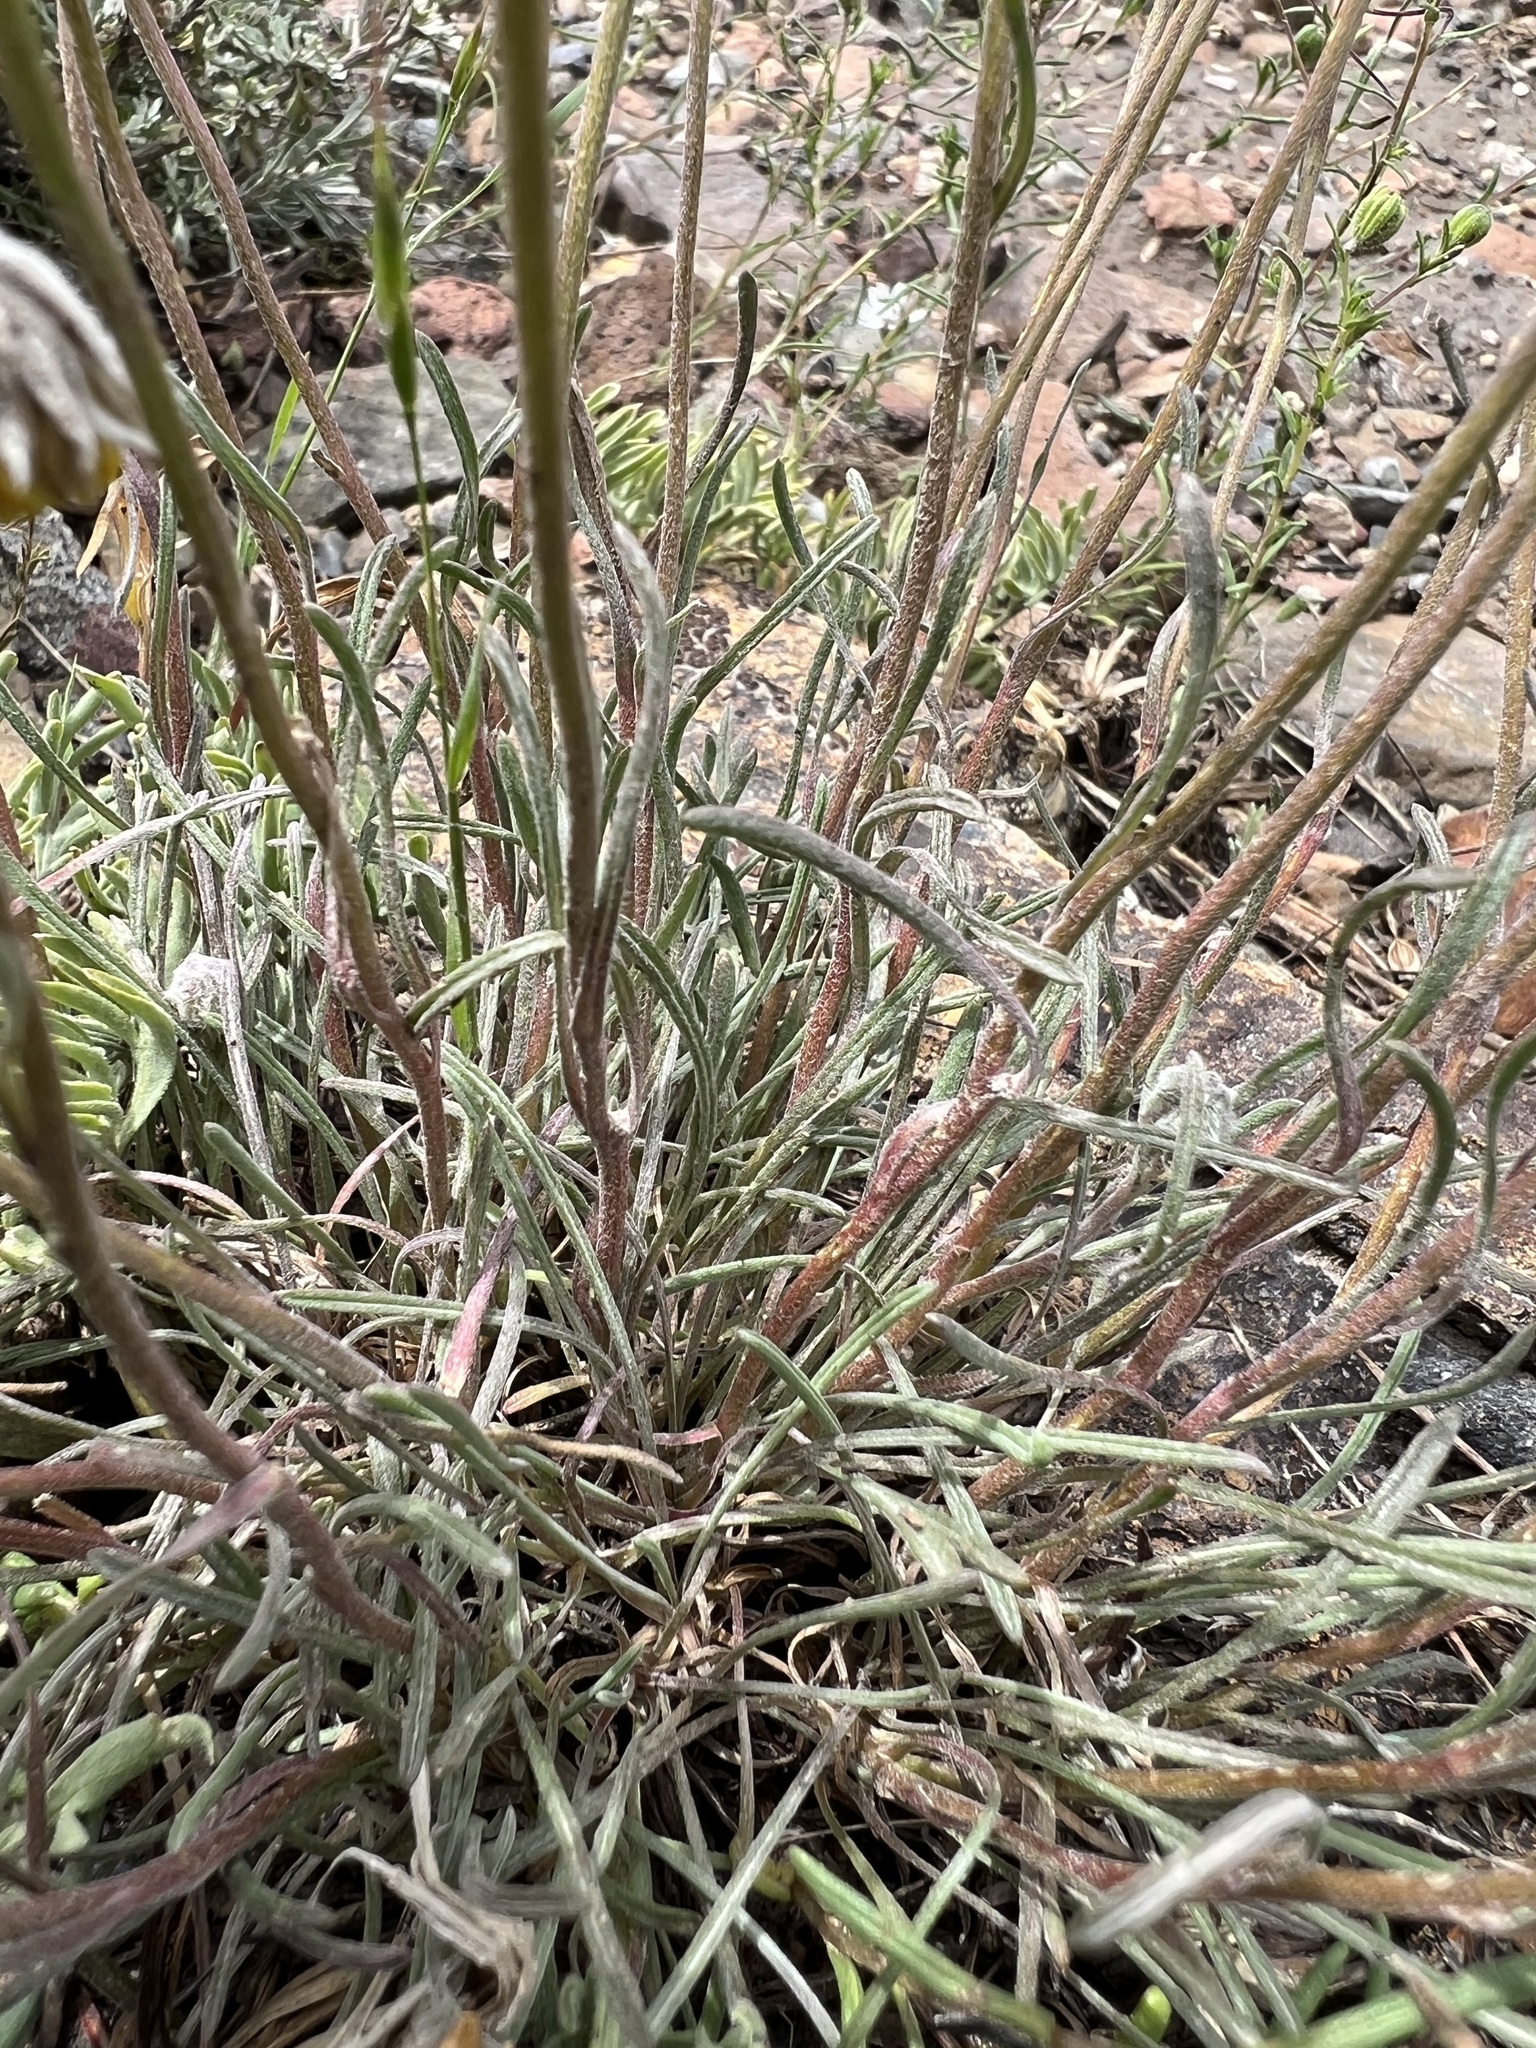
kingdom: Plantae
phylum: Tracheophyta
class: Magnoliopsida
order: Asterales
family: Asteraceae
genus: Erigeron
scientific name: Erigeron bloomeri
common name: Bloomer's fleabane
